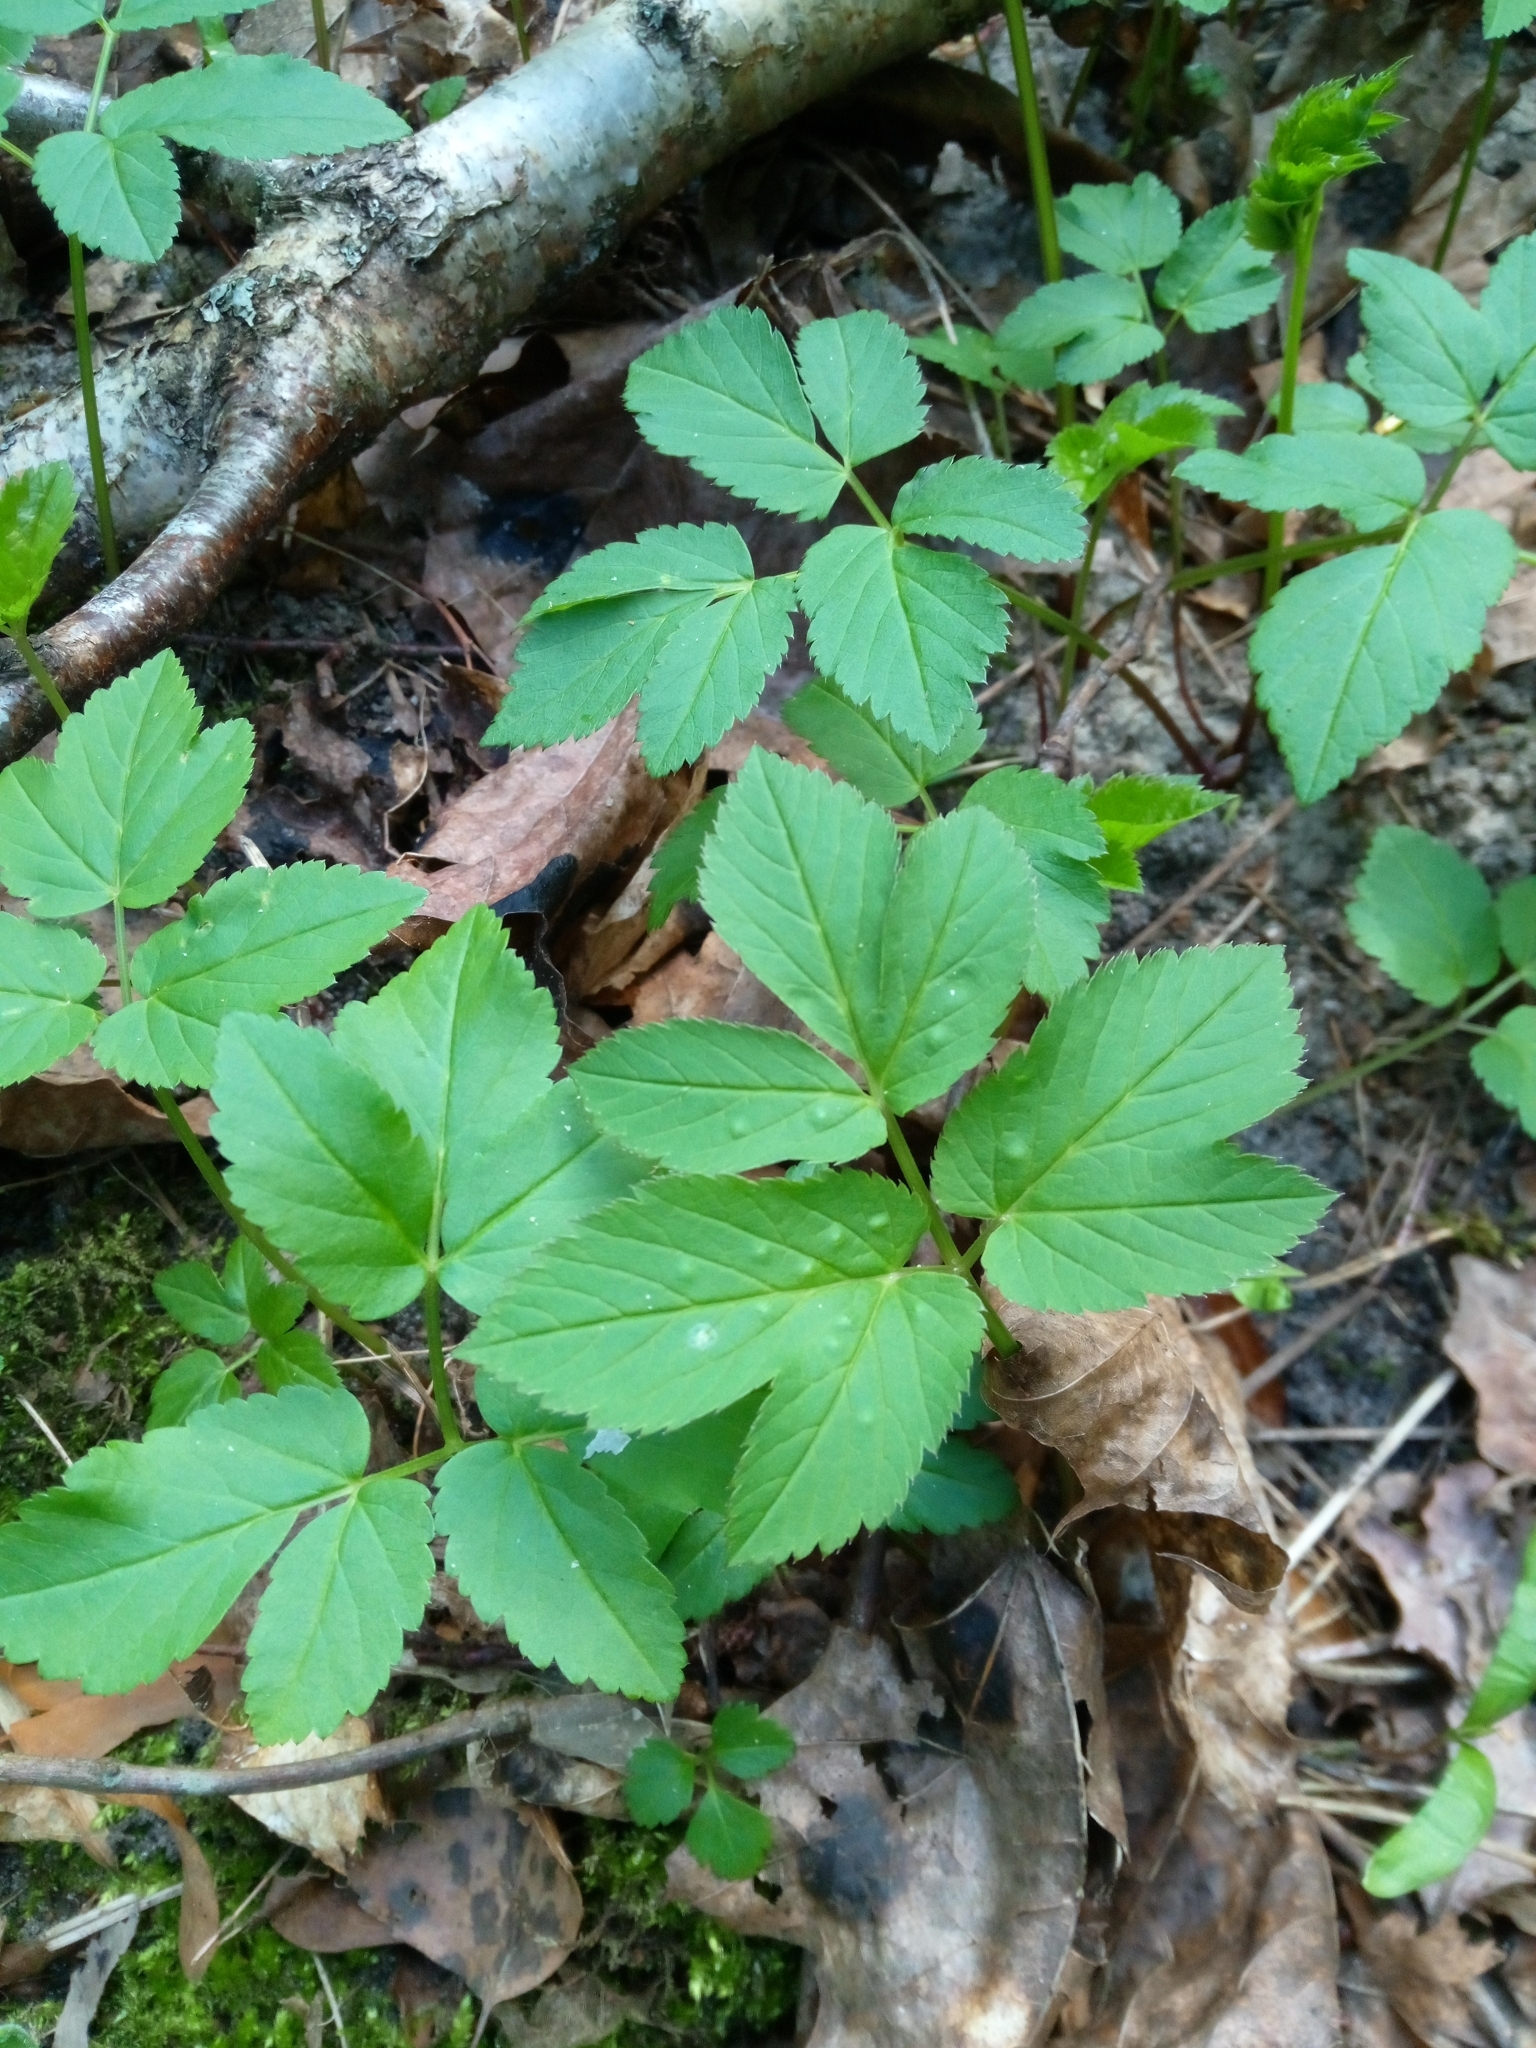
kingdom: Animalia
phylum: Arthropoda
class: Insecta
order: Hemiptera
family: Triozidae
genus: Trioza
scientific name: Trioza flavipennis
